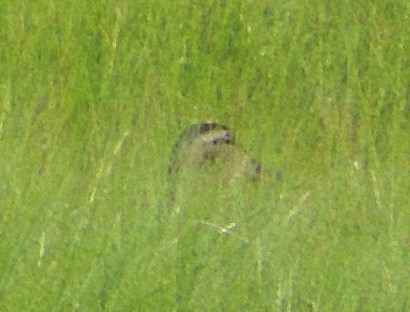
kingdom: Animalia
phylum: Chordata
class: Aves
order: Anseriformes
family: Anatidae
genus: Anas
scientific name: Anas platyrhynchos
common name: Mallard
